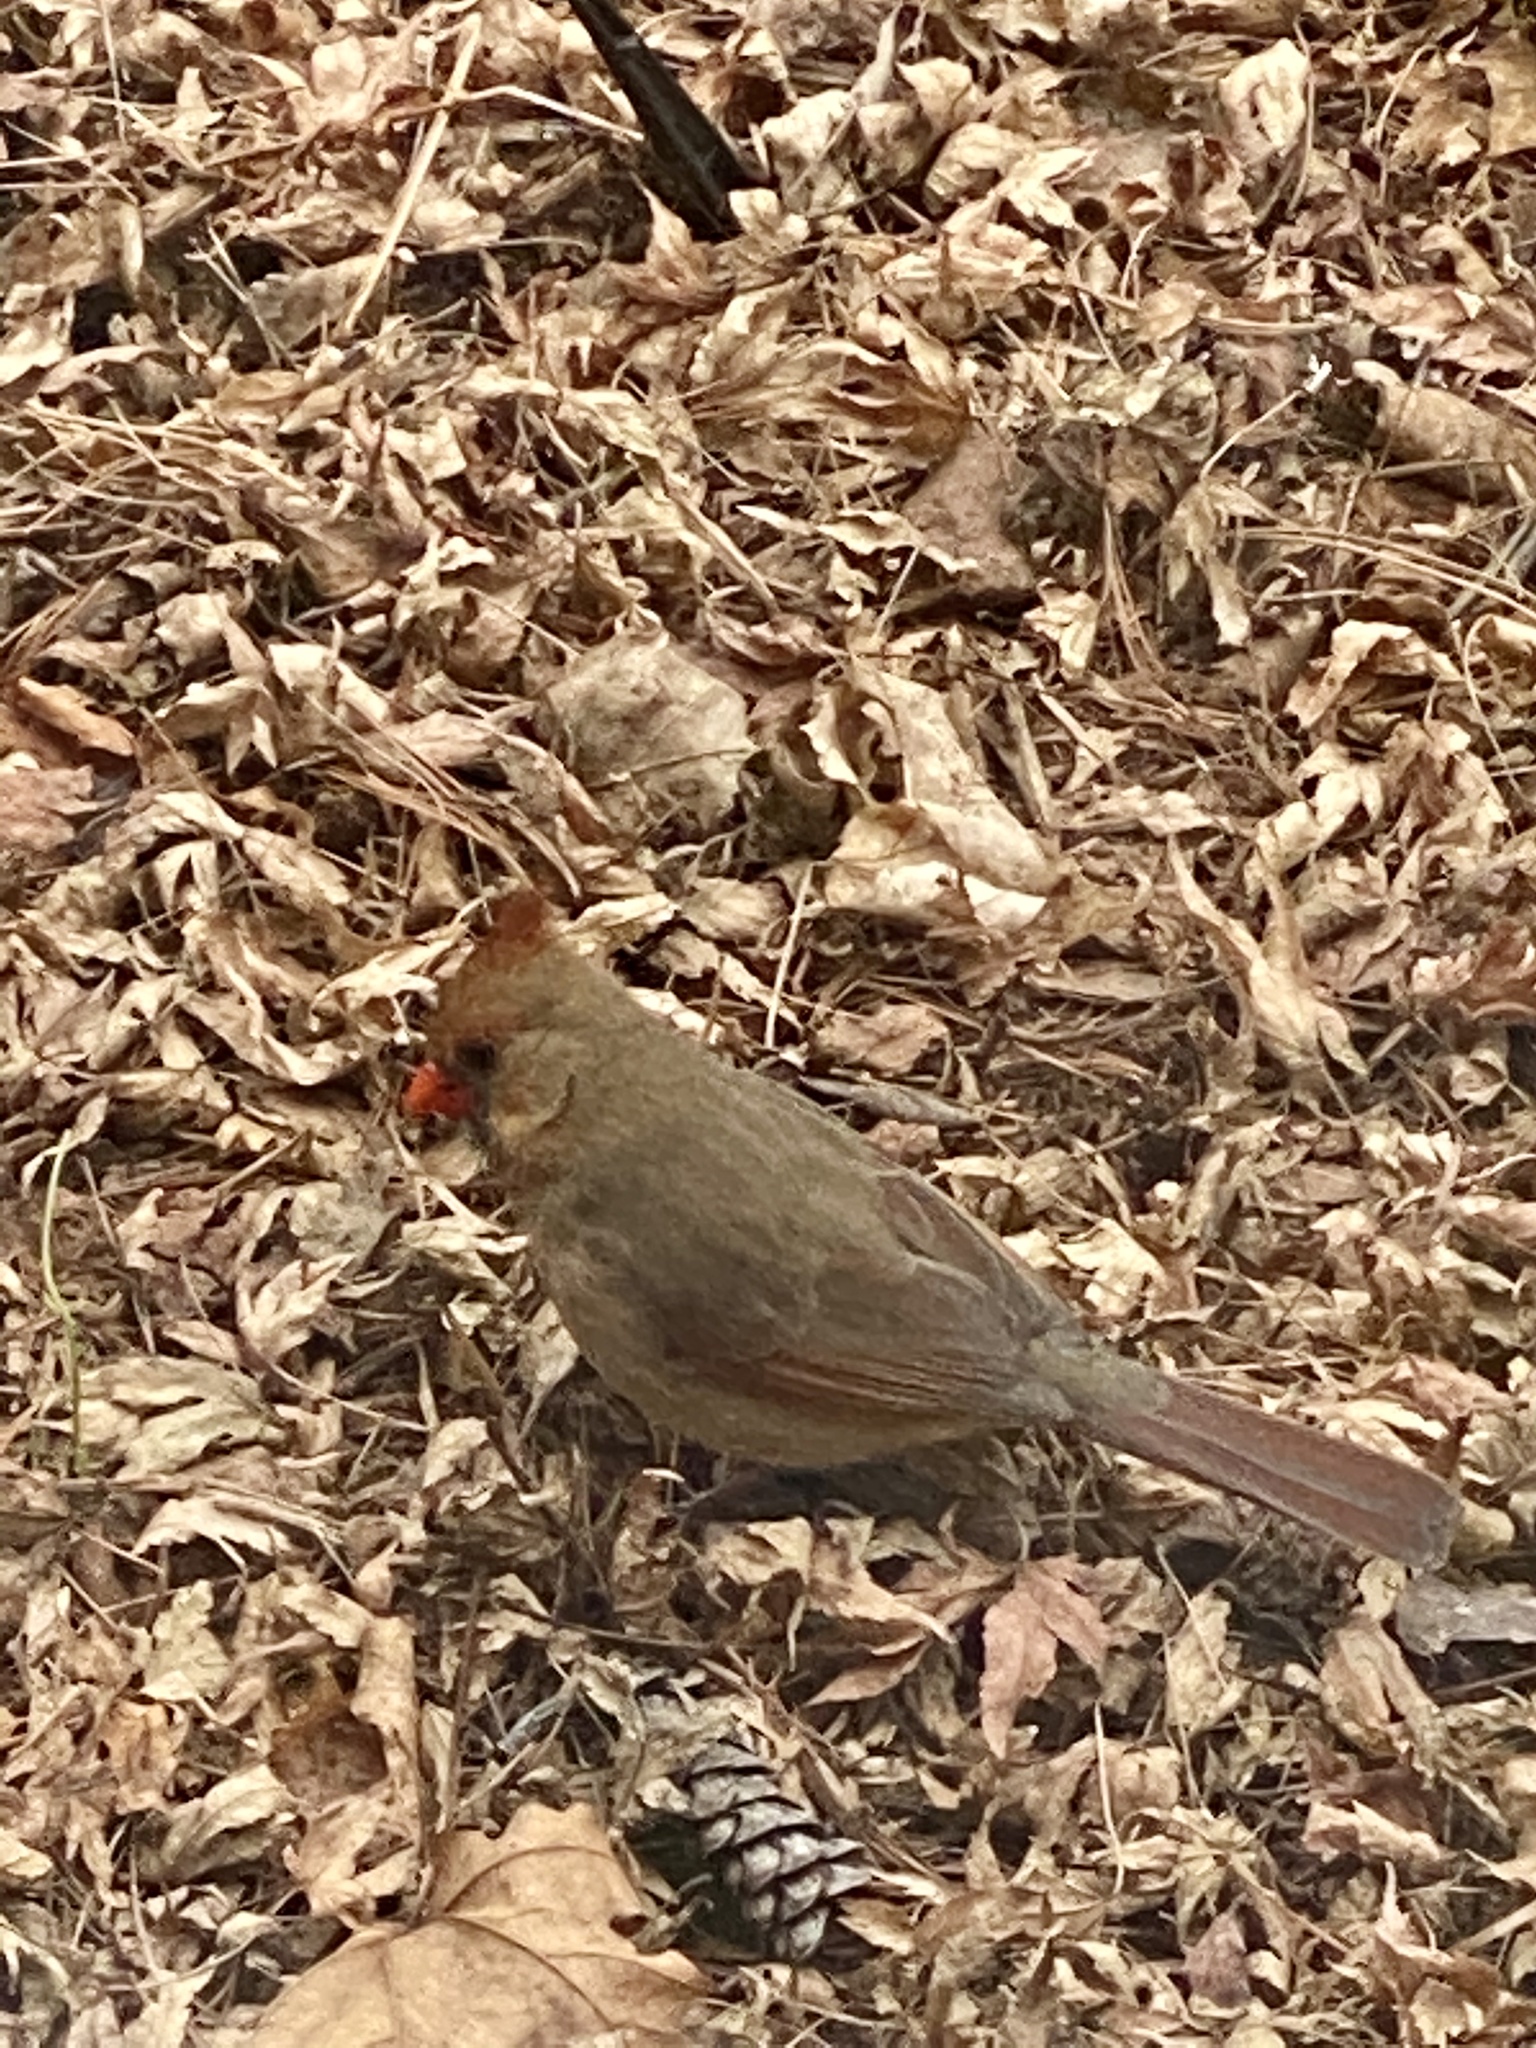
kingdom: Animalia
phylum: Chordata
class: Aves
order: Passeriformes
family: Cardinalidae
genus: Cardinalis
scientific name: Cardinalis cardinalis
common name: Northern cardinal
